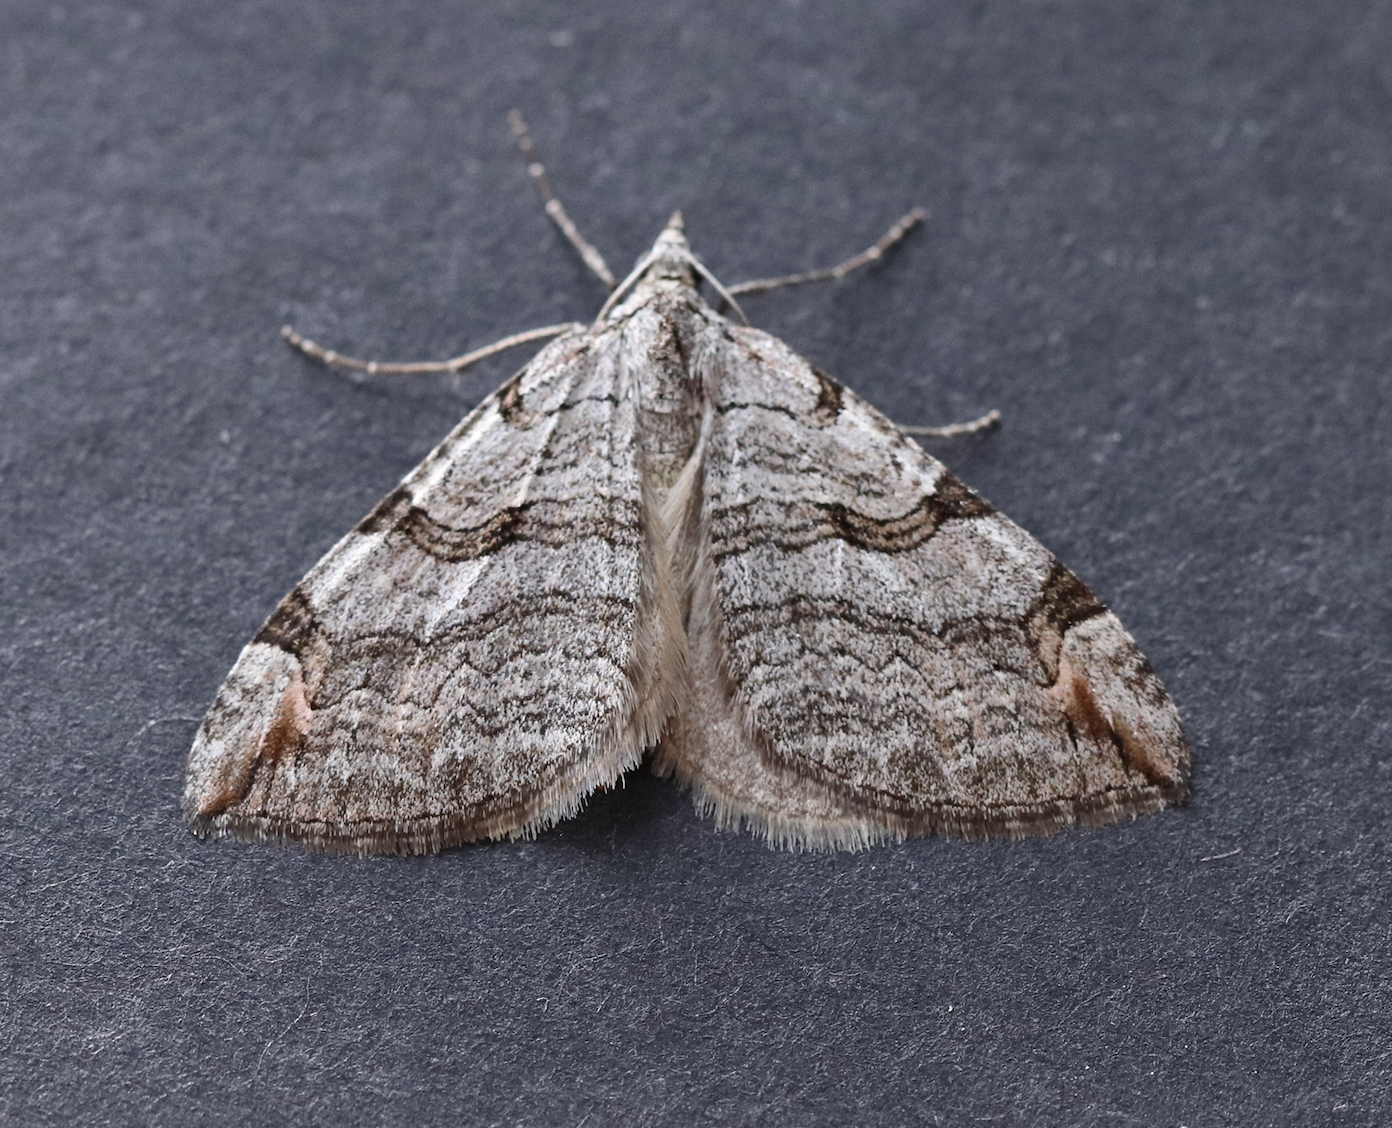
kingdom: Animalia
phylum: Arthropoda
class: Insecta
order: Lepidoptera
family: Geometridae
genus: Aplocera
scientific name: Aplocera plagiata
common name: Treble-bar
